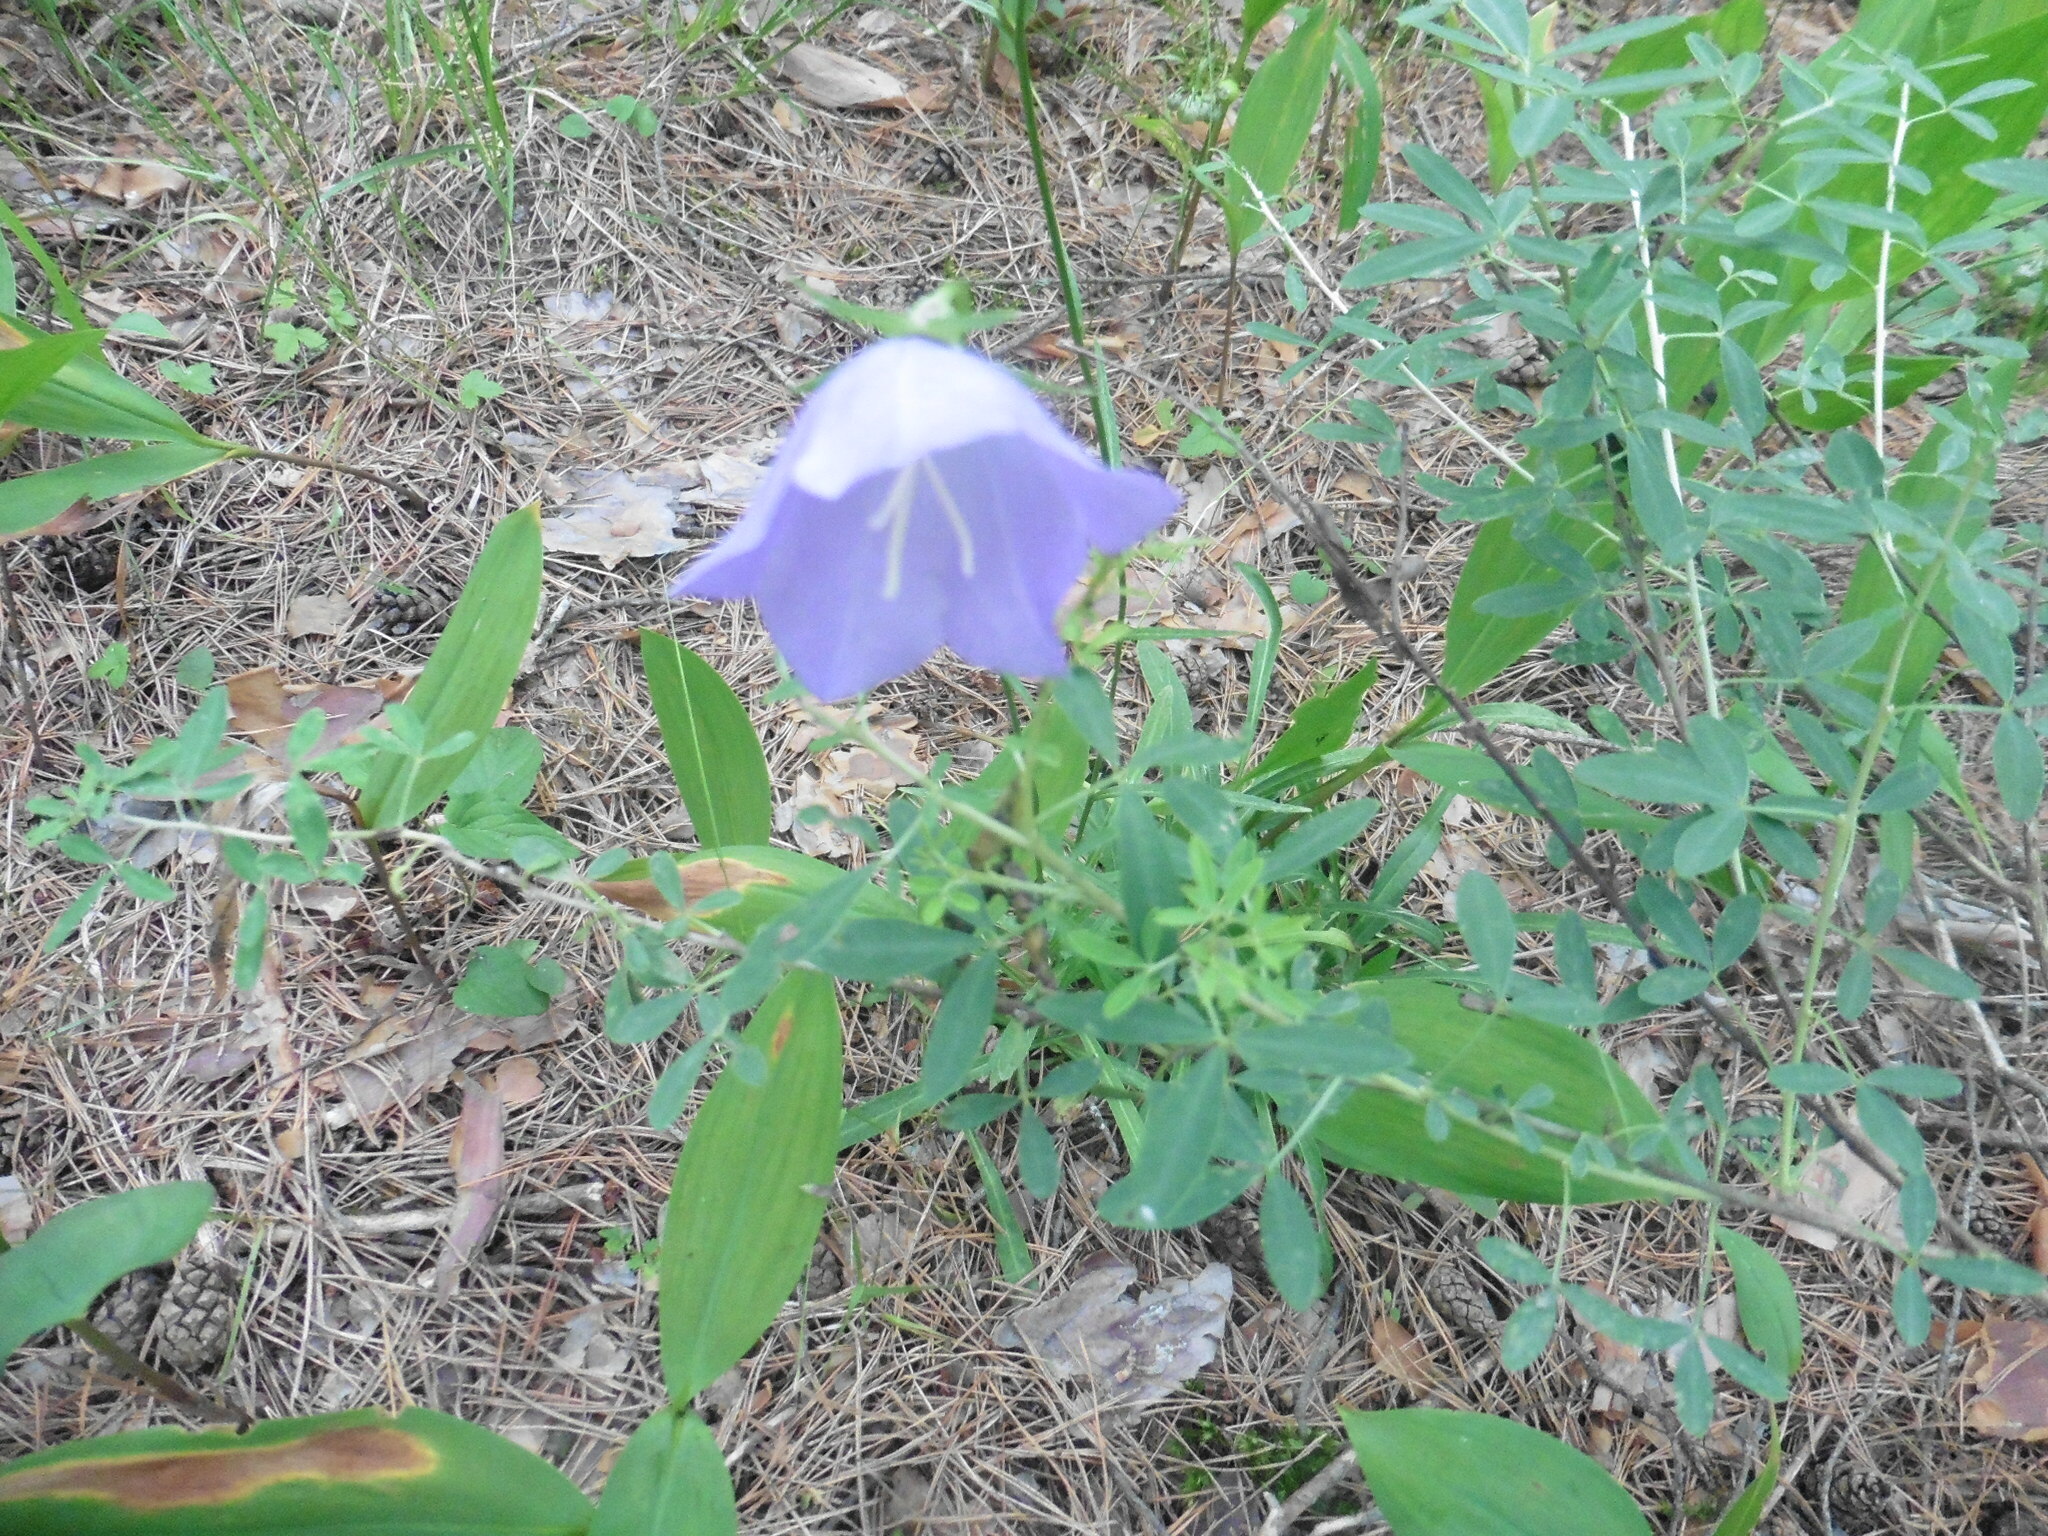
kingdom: Plantae
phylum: Tracheophyta
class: Magnoliopsida
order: Asterales
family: Campanulaceae
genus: Campanula
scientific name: Campanula persicifolia
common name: Peach-leaved bellflower
